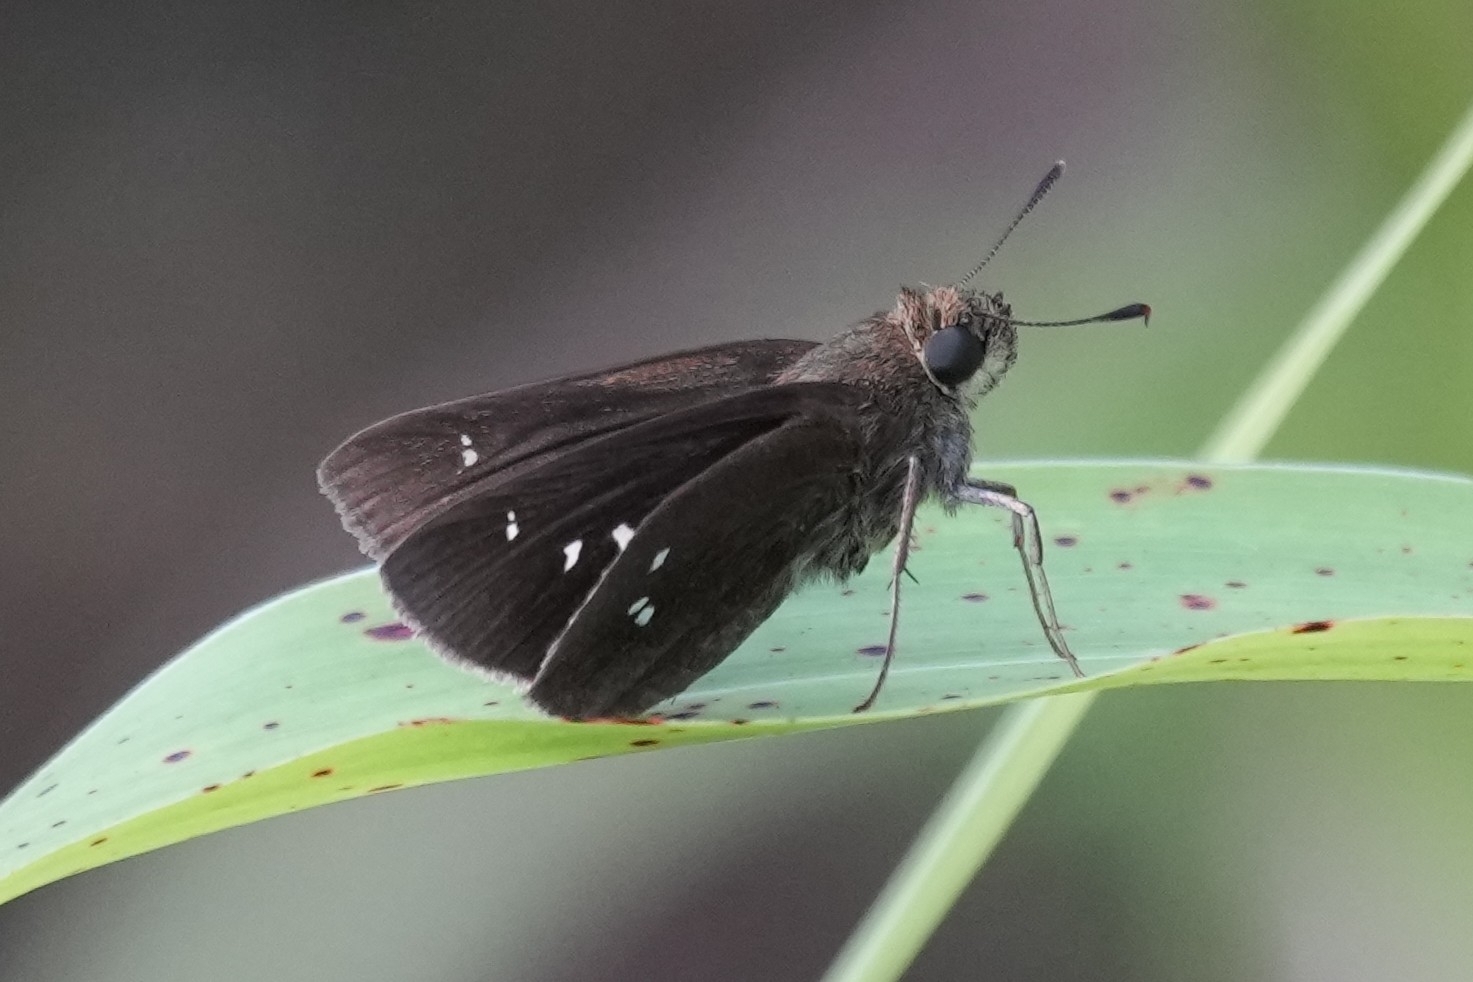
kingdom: Animalia
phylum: Arthropoda
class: Insecta
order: Lepidoptera
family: Hesperiidae
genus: Oligoria
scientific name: Oligoria maculata
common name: Twin-spot skipper
